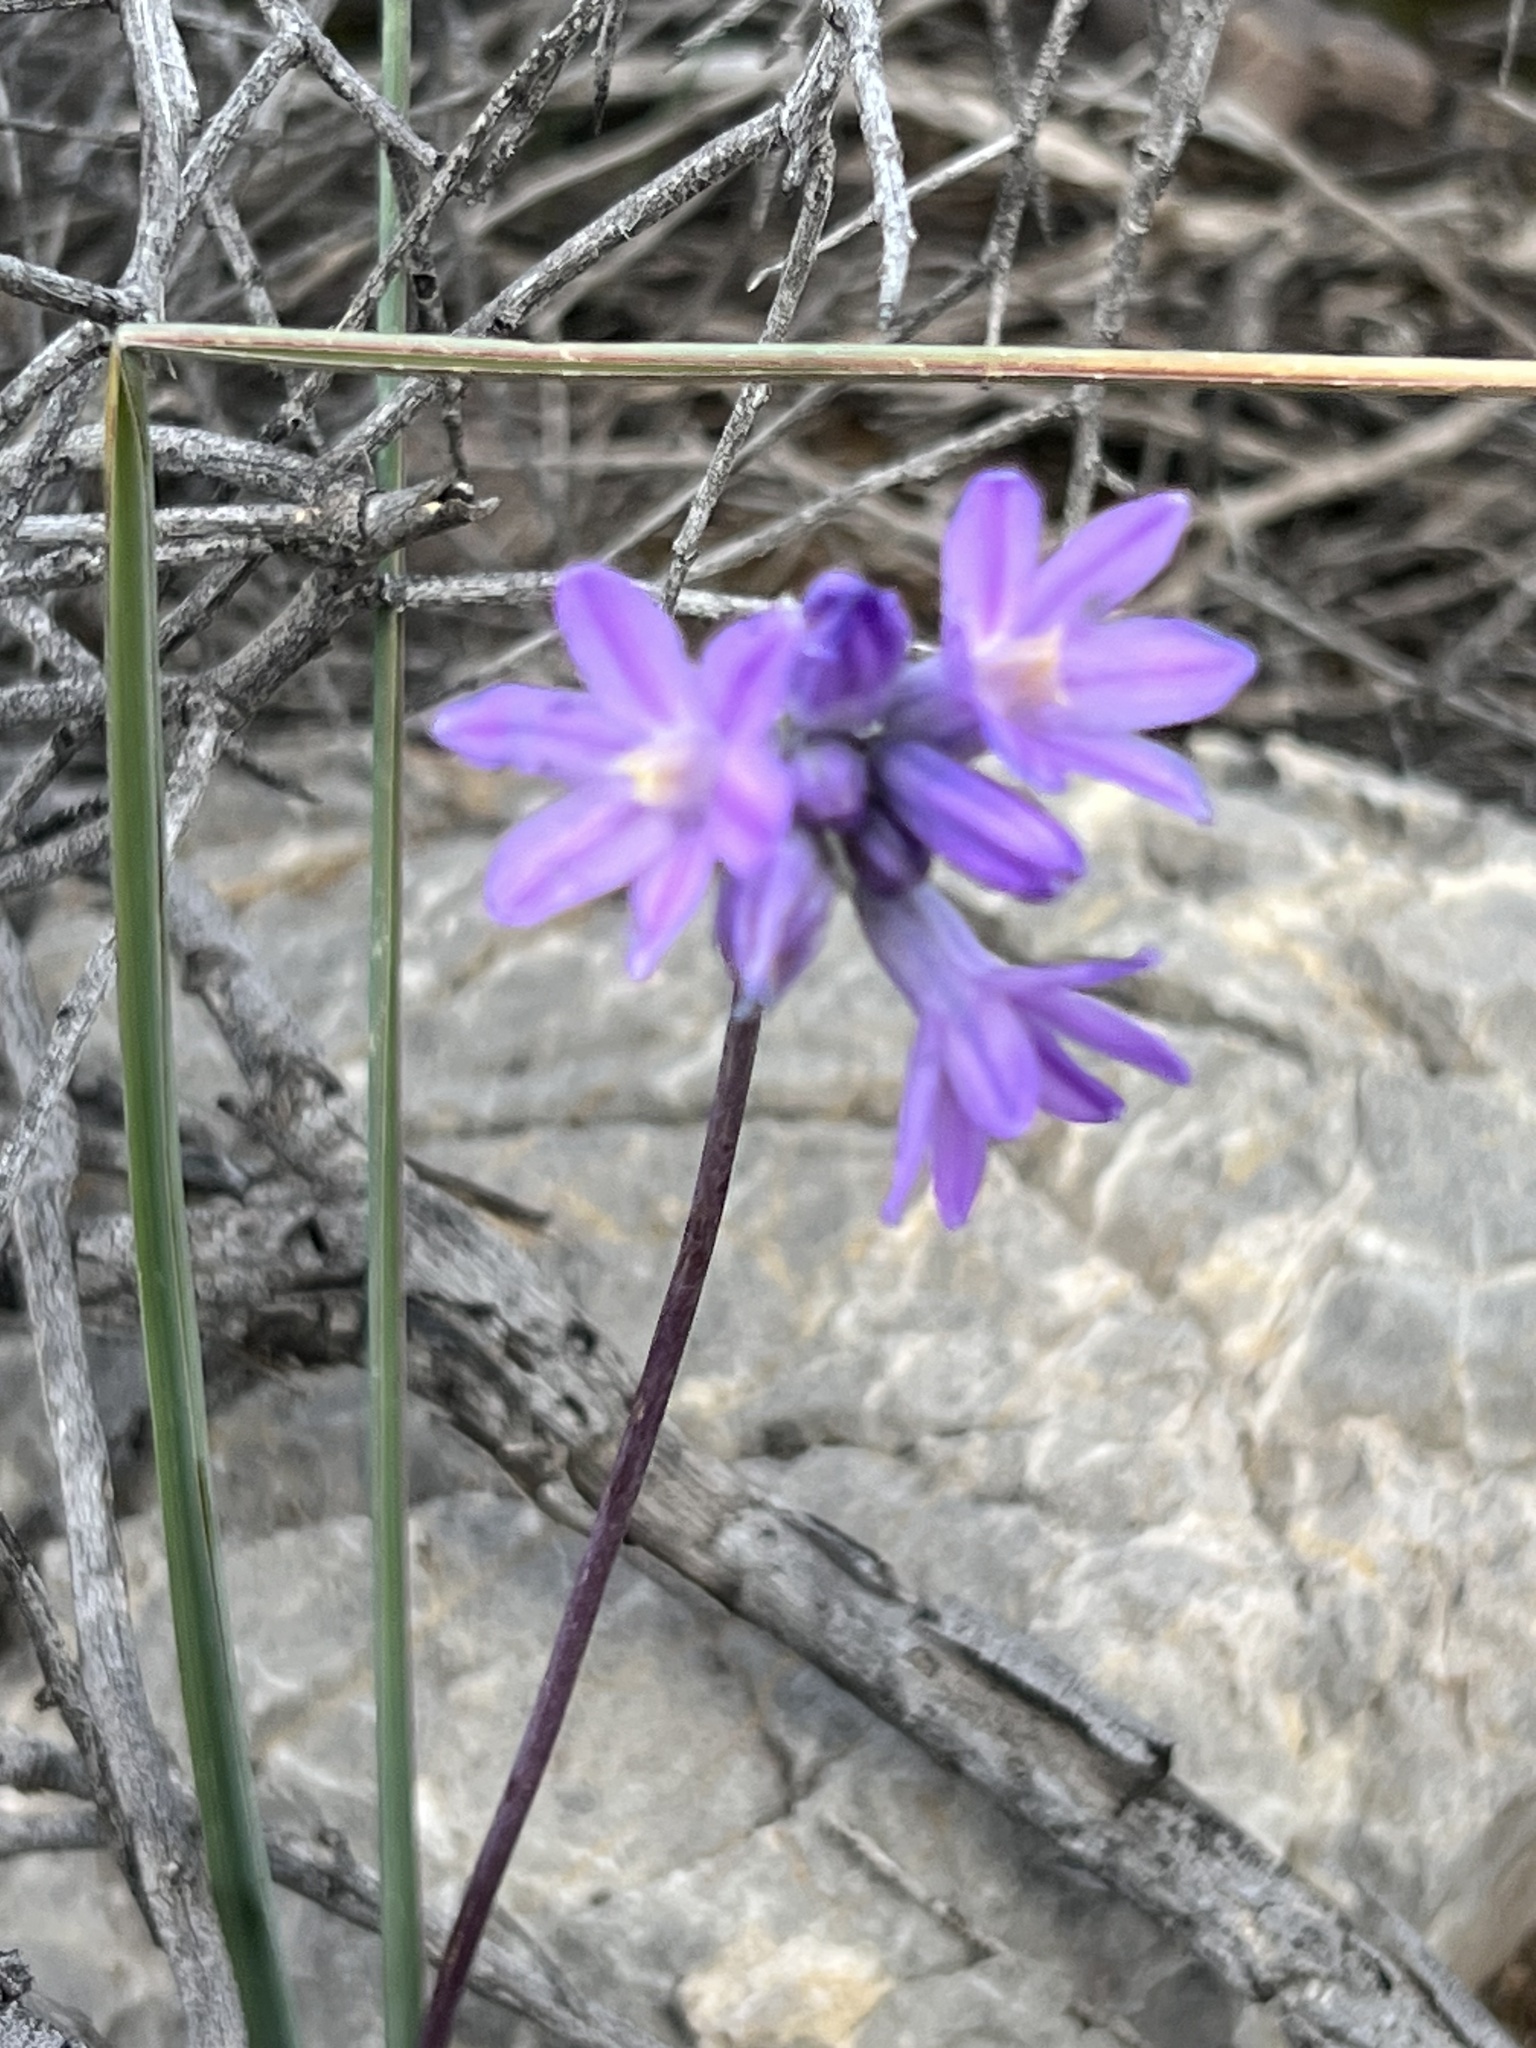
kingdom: Plantae
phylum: Tracheophyta
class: Liliopsida
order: Asparagales
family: Asparagaceae
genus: Dipterostemon
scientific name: Dipterostemon capitatus
